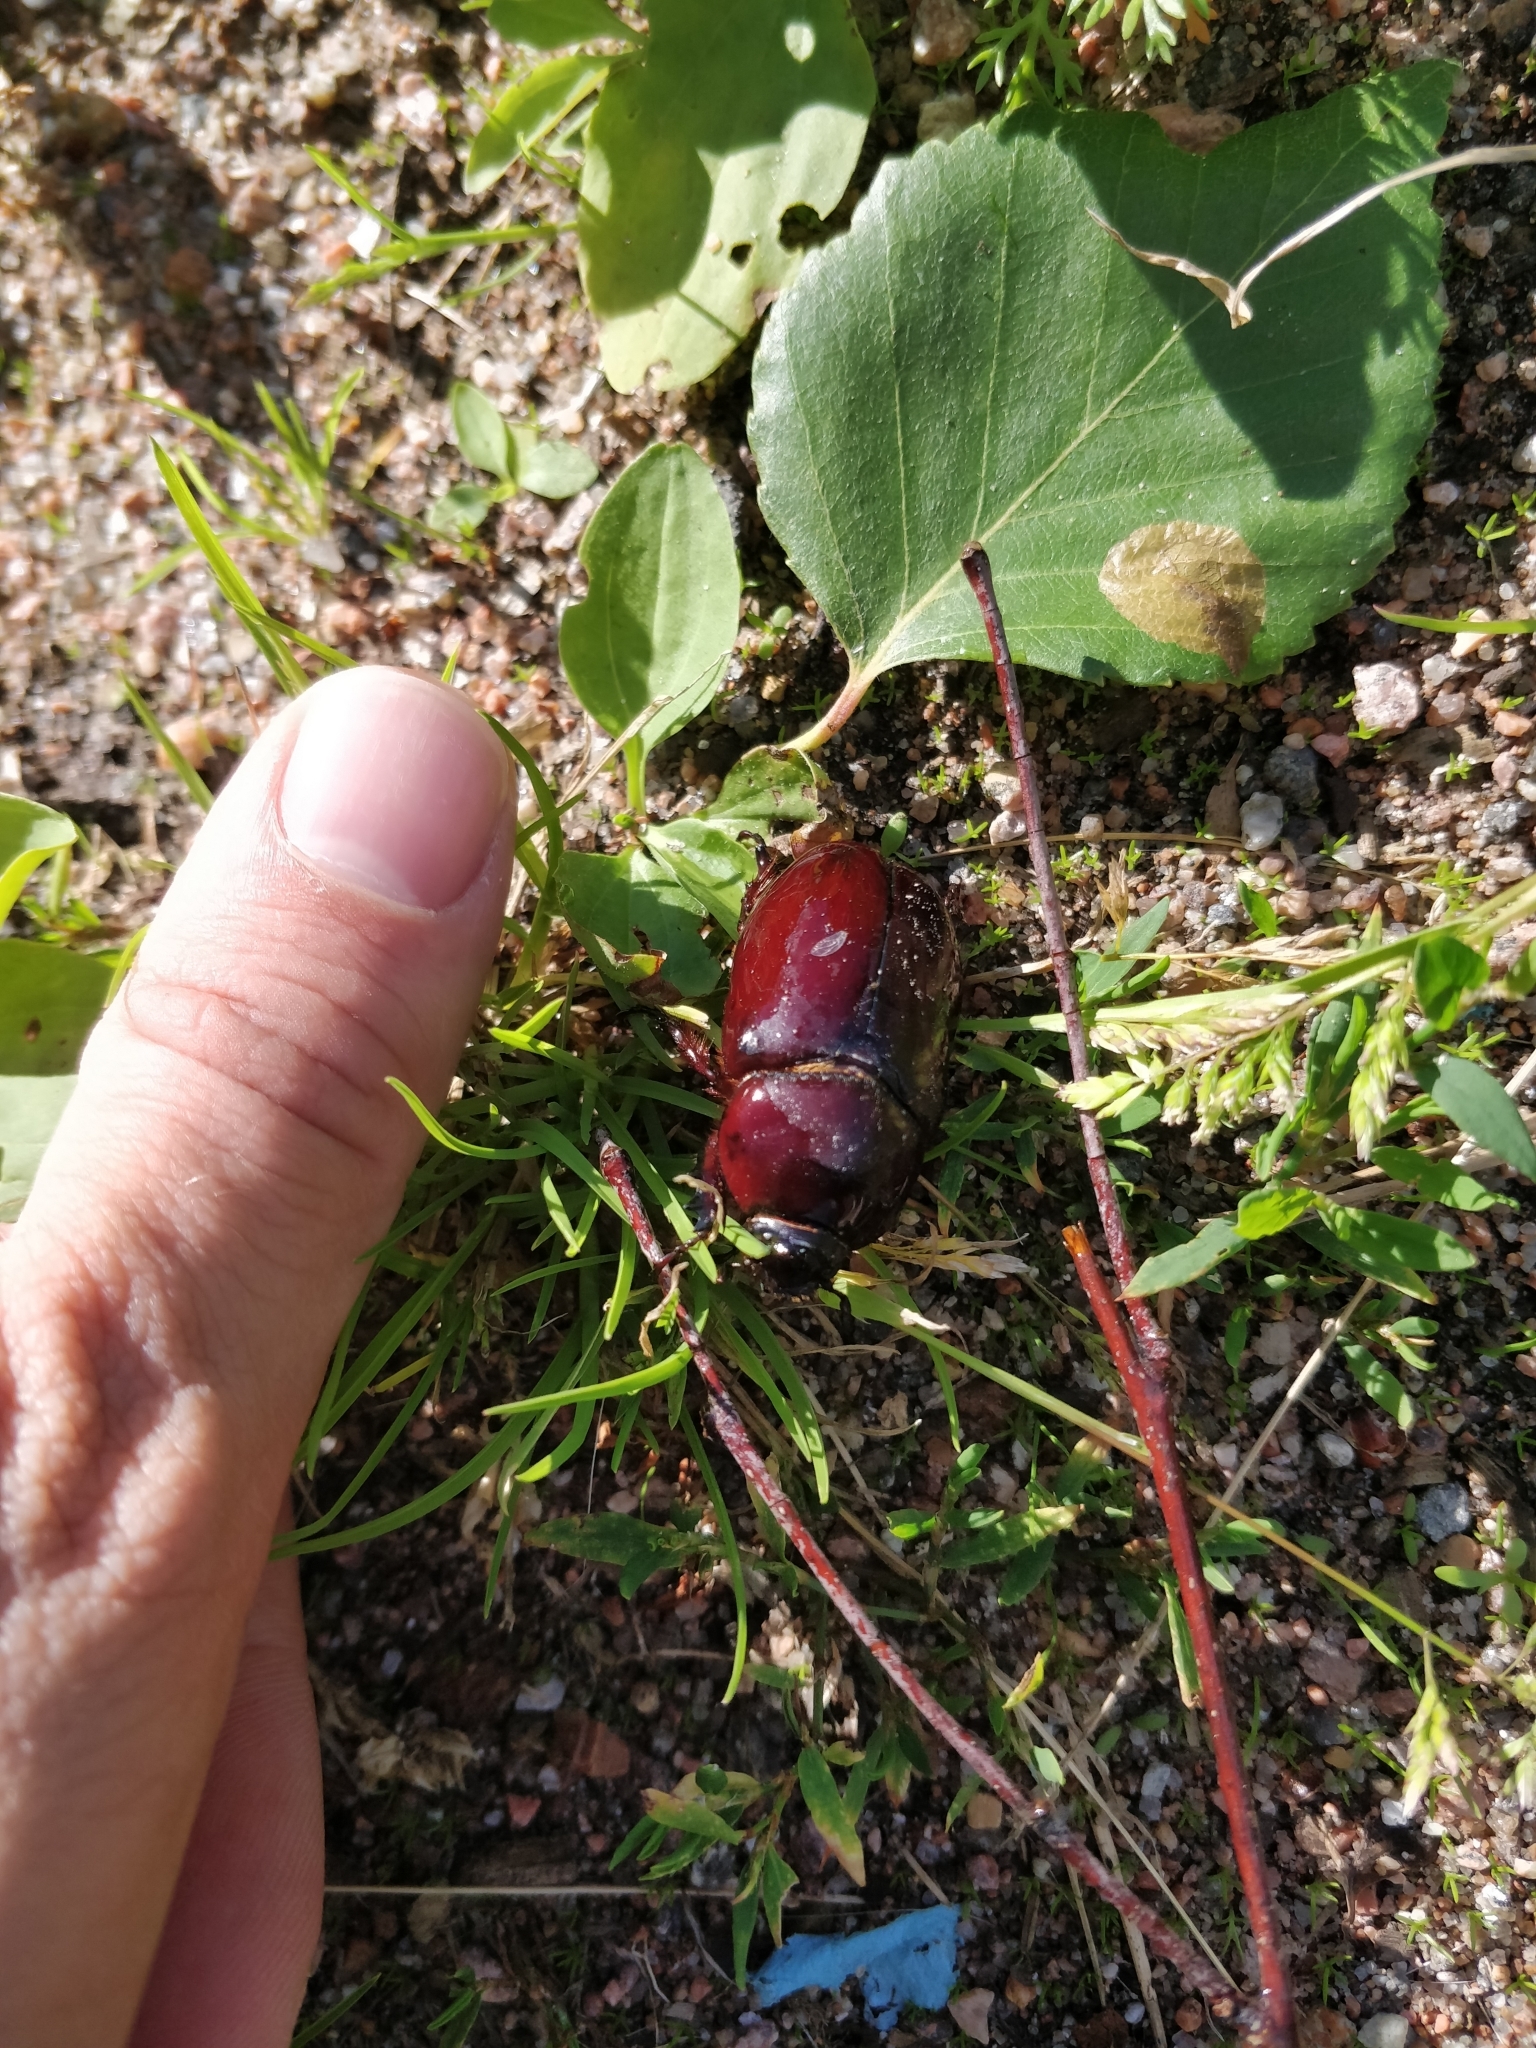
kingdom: Animalia
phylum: Arthropoda
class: Insecta
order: Coleoptera
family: Scarabaeidae
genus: Oryctes
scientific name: Oryctes nasicornis
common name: European rhinoceros beetle
